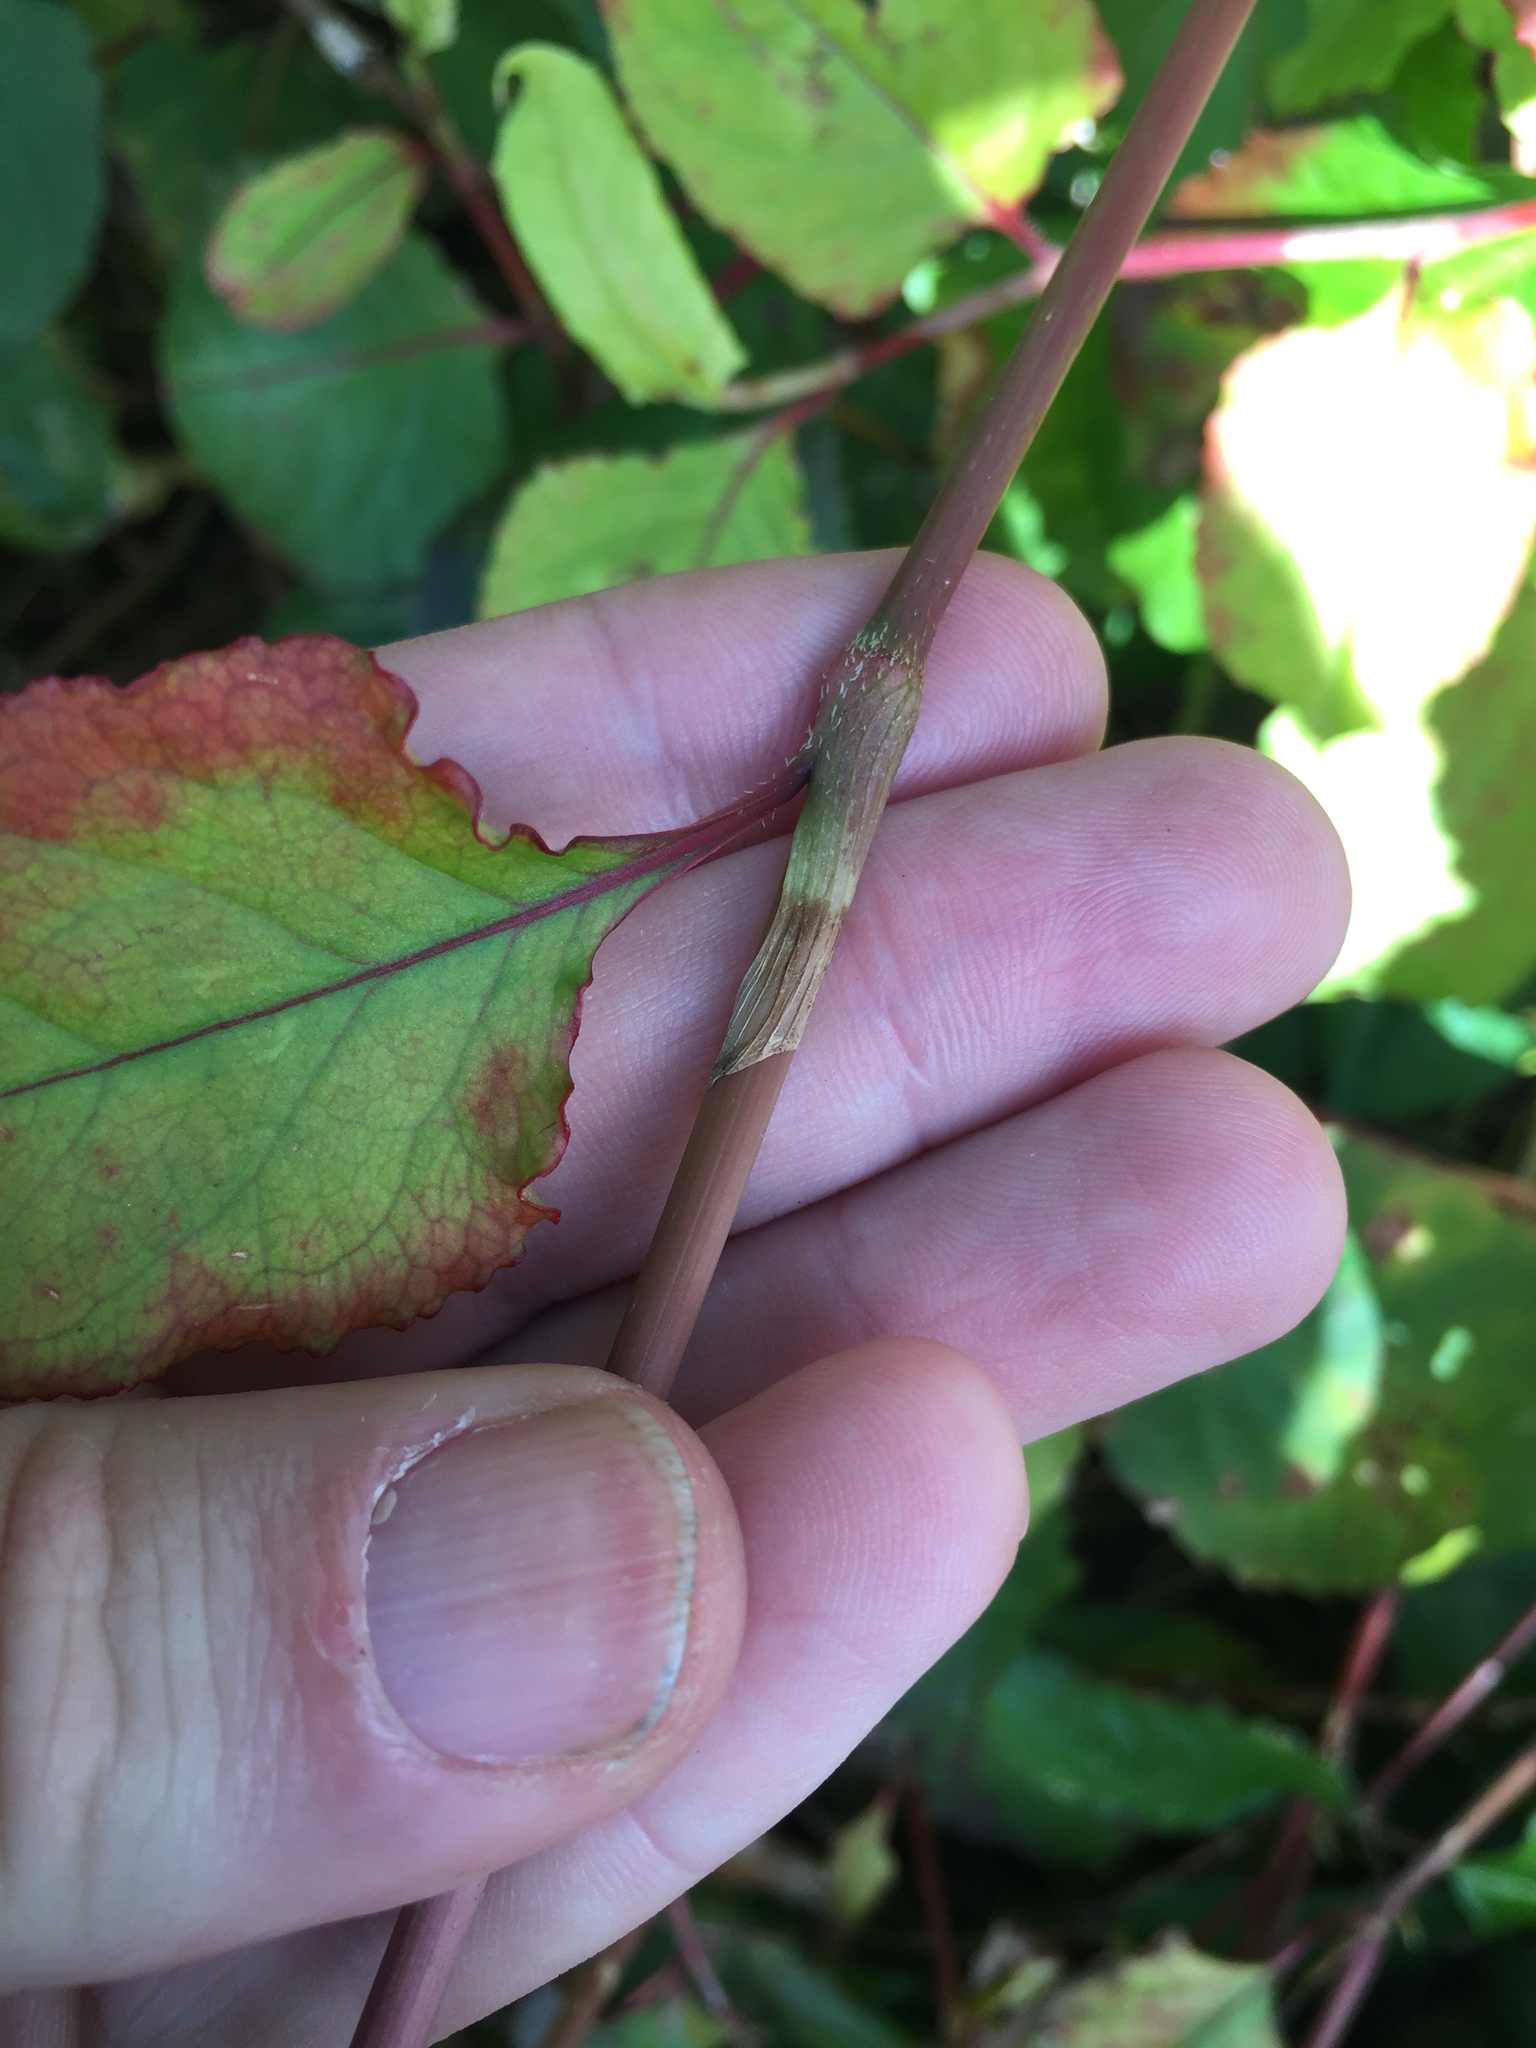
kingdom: Plantae
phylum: Tracheophyta
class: Magnoliopsida
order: Caryophyllales
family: Polygonaceae
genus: Persicaria
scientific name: Persicaria chinensis
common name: Chinese knotweed
